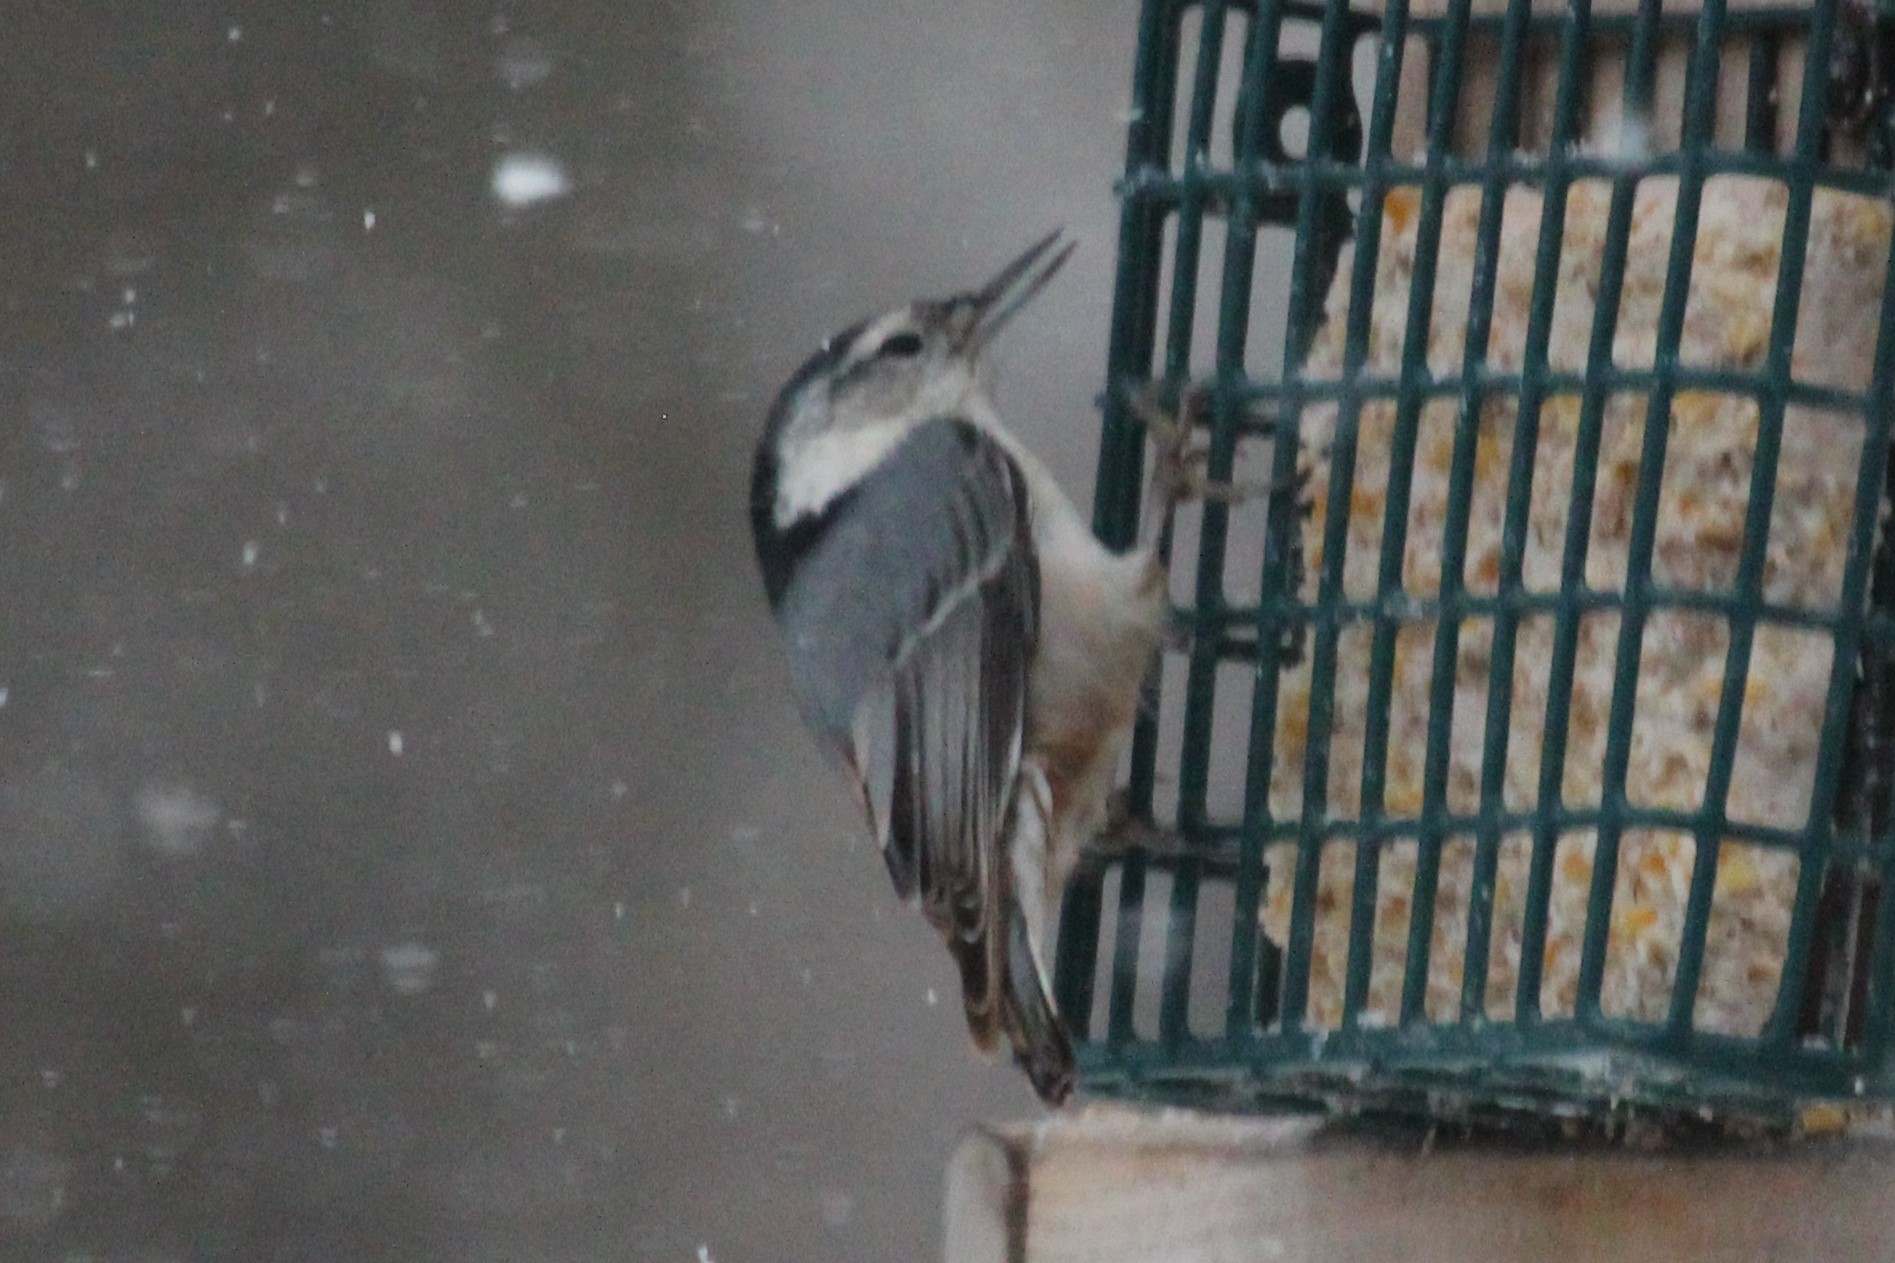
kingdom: Animalia
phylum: Chordata
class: Aves
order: Passeriformes
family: Sittidae
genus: Sitta
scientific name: Sitta carolinensis
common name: White-breasted nuthatch
